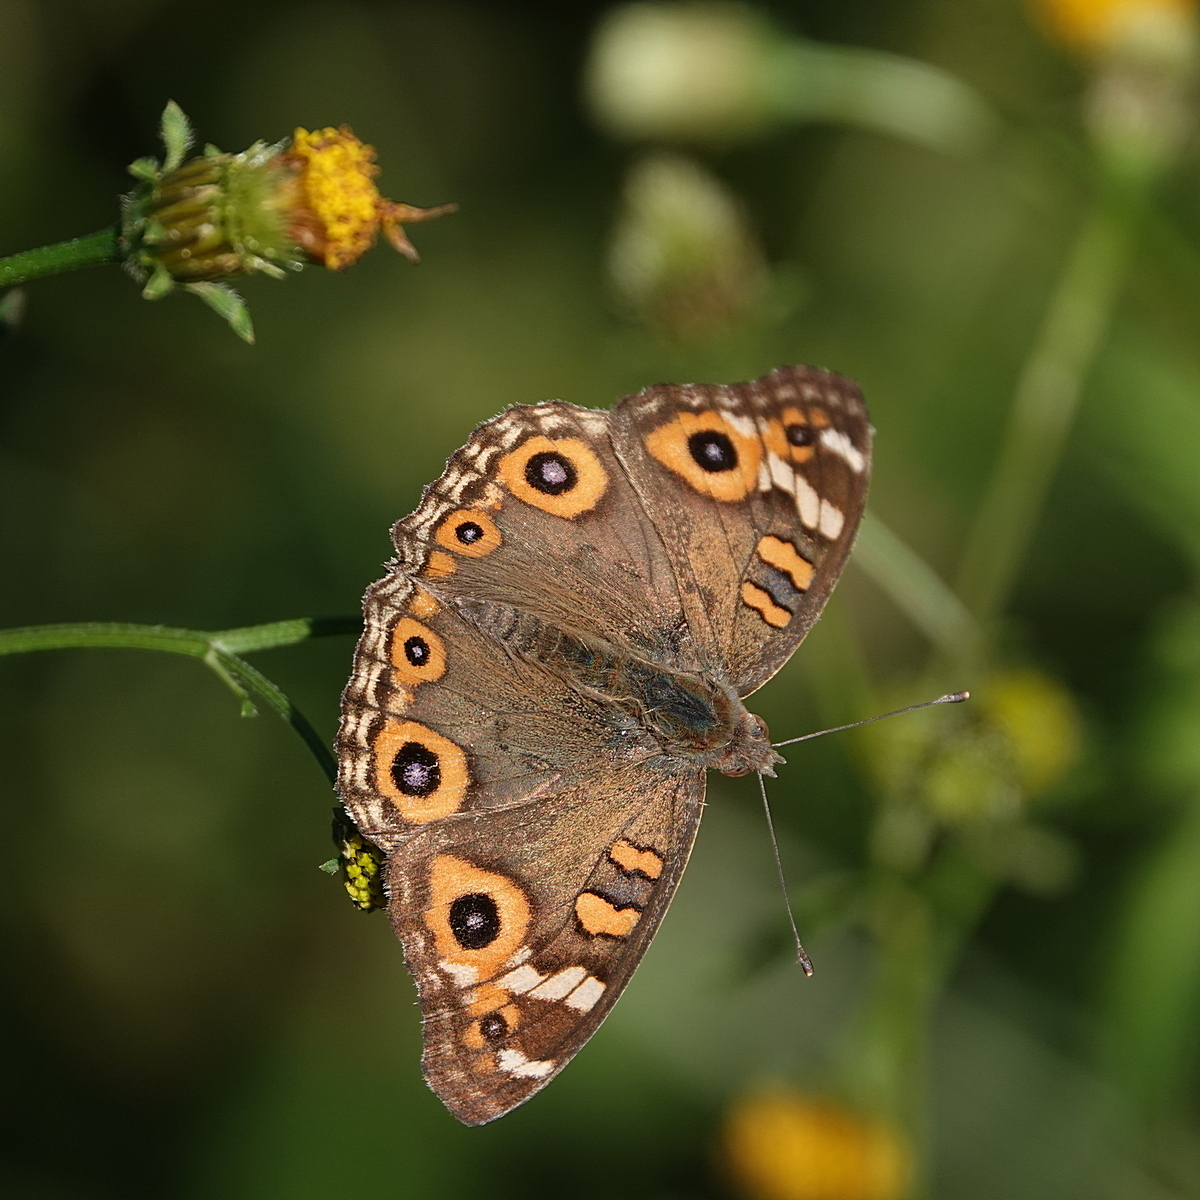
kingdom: Animalia
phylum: Arthropoda
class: Insecta
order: Lepidoptera
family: Nymphalidae
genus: Junonia
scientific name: Junonia villida
